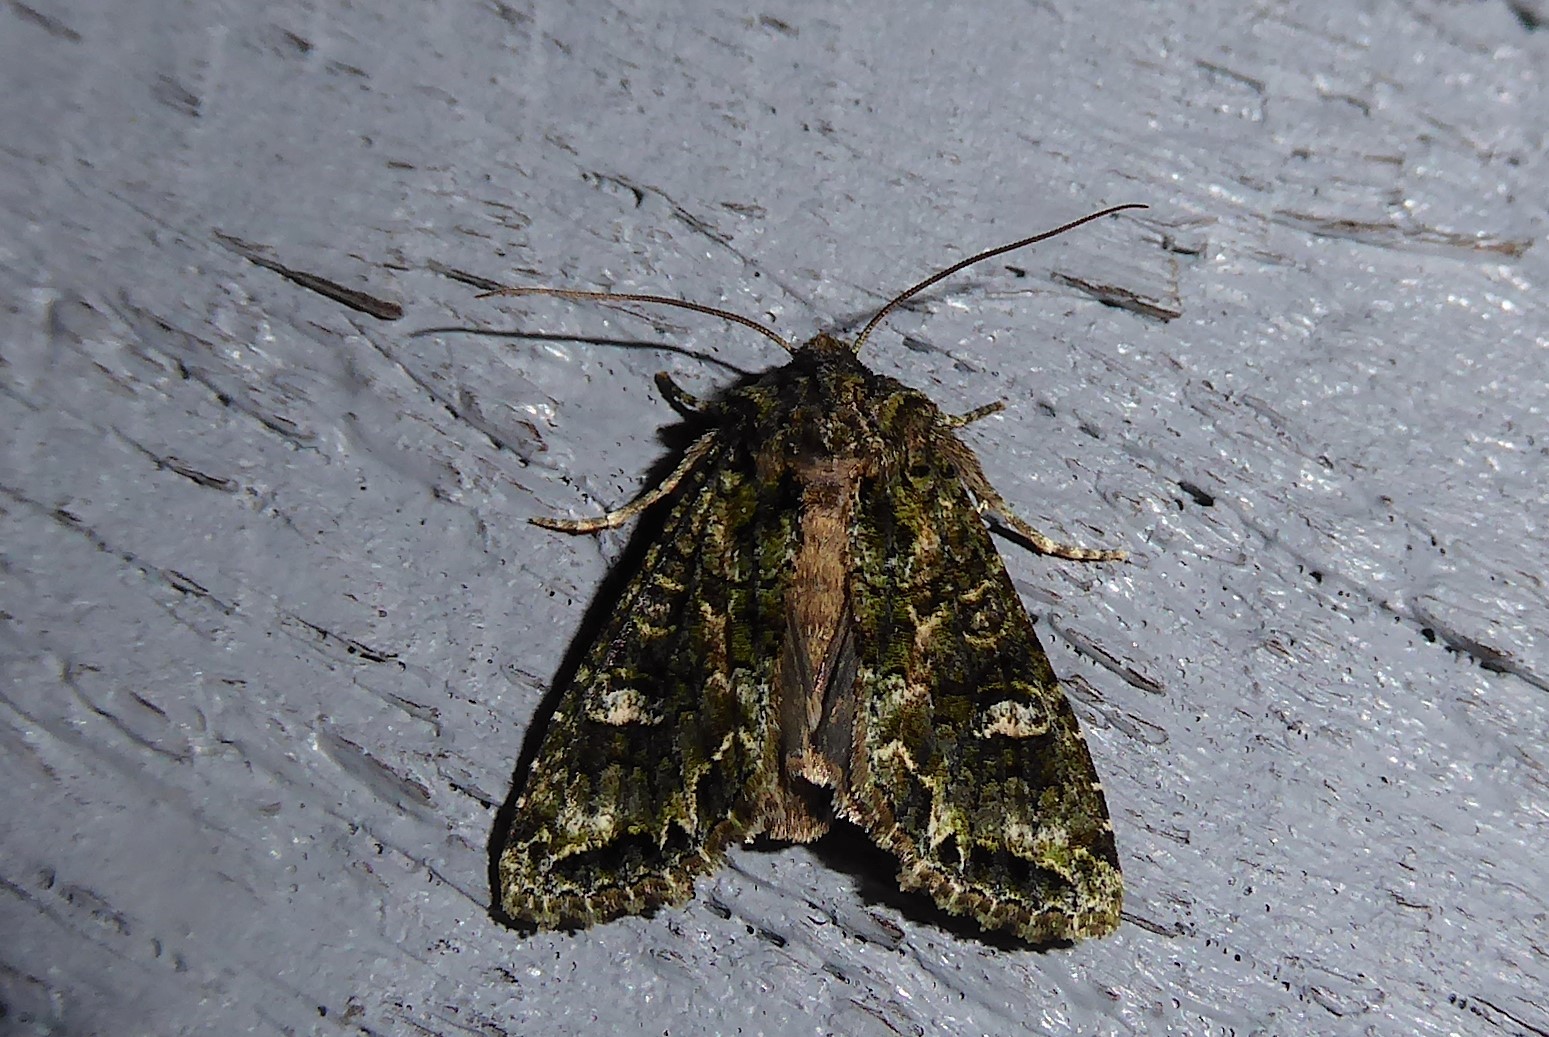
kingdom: Animalia
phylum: Arthropoda
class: Insecta
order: Lepidoptera
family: Noctuidae
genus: Ichneutica
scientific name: Ichneutica
